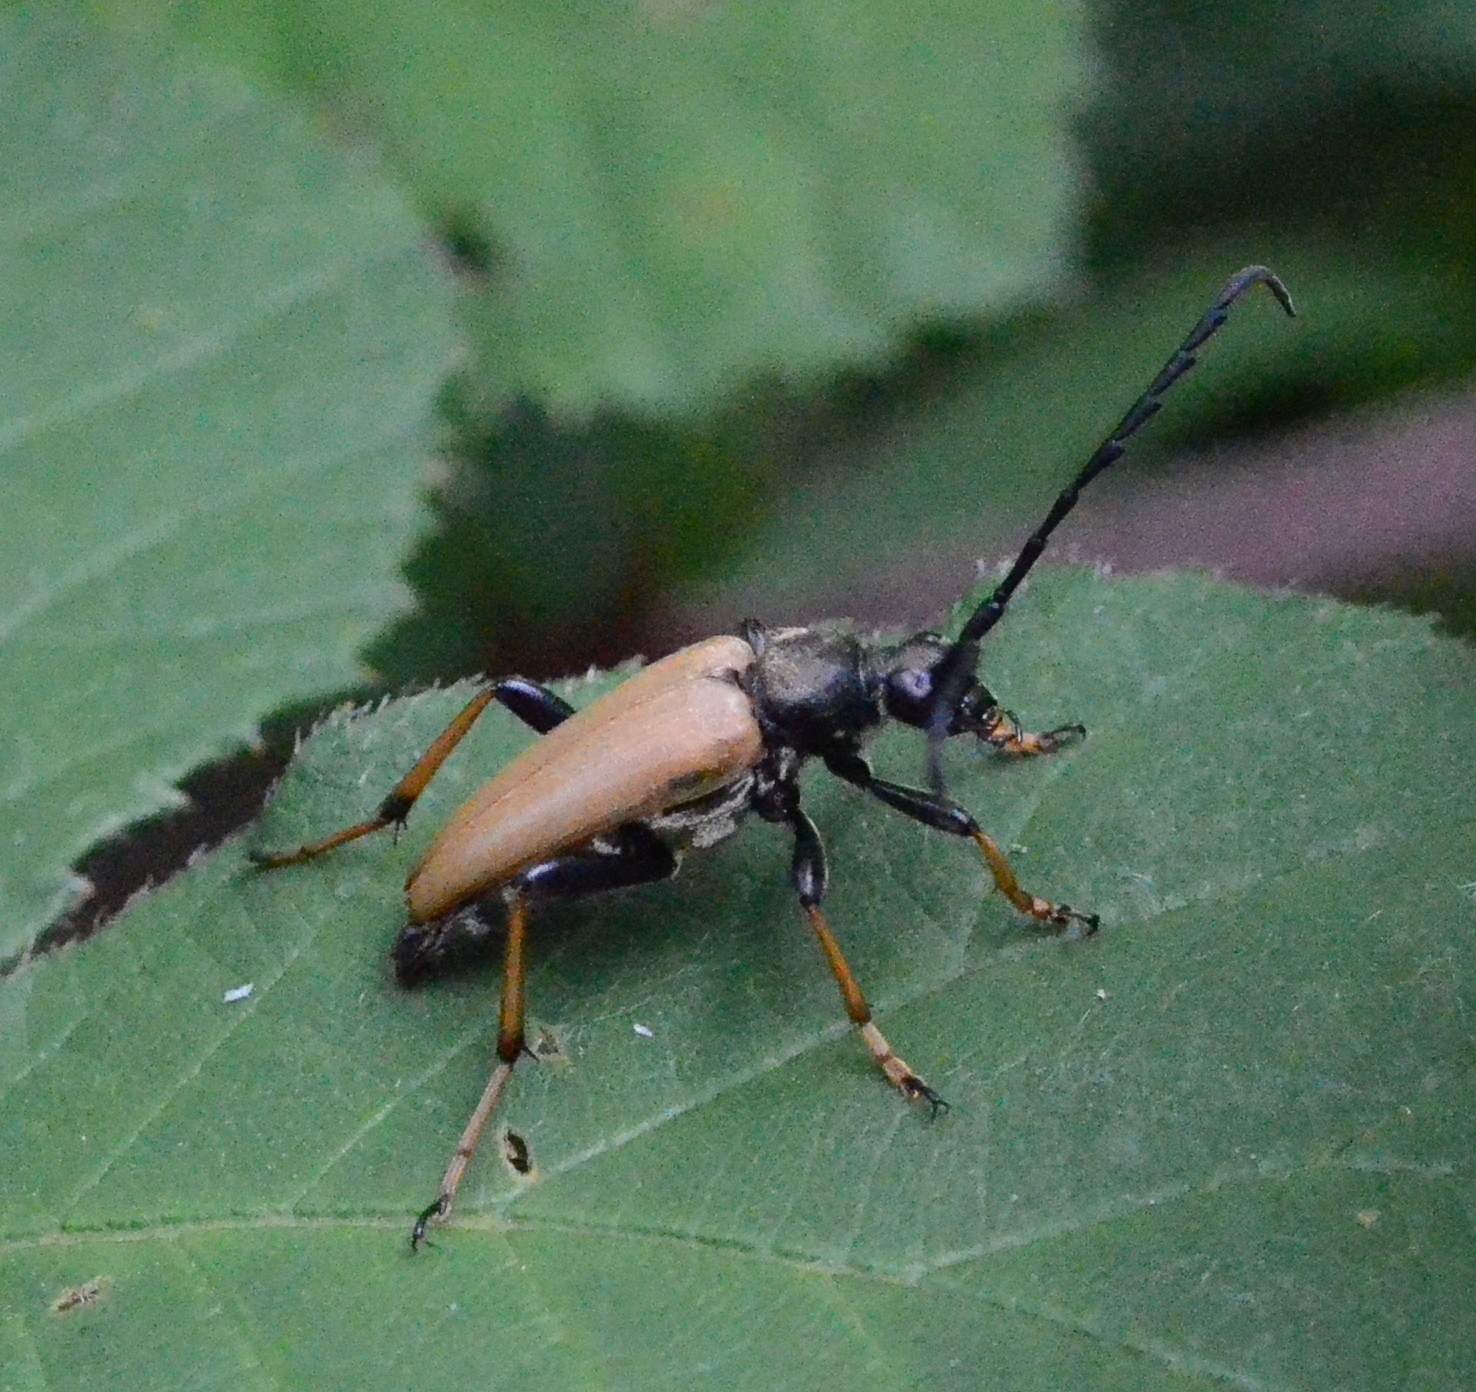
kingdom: Animalia
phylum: Arthropoda
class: Insecta
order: Coleoptera
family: Cerambycidae
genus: Stictoleptura
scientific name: Stictoleptura rubra
